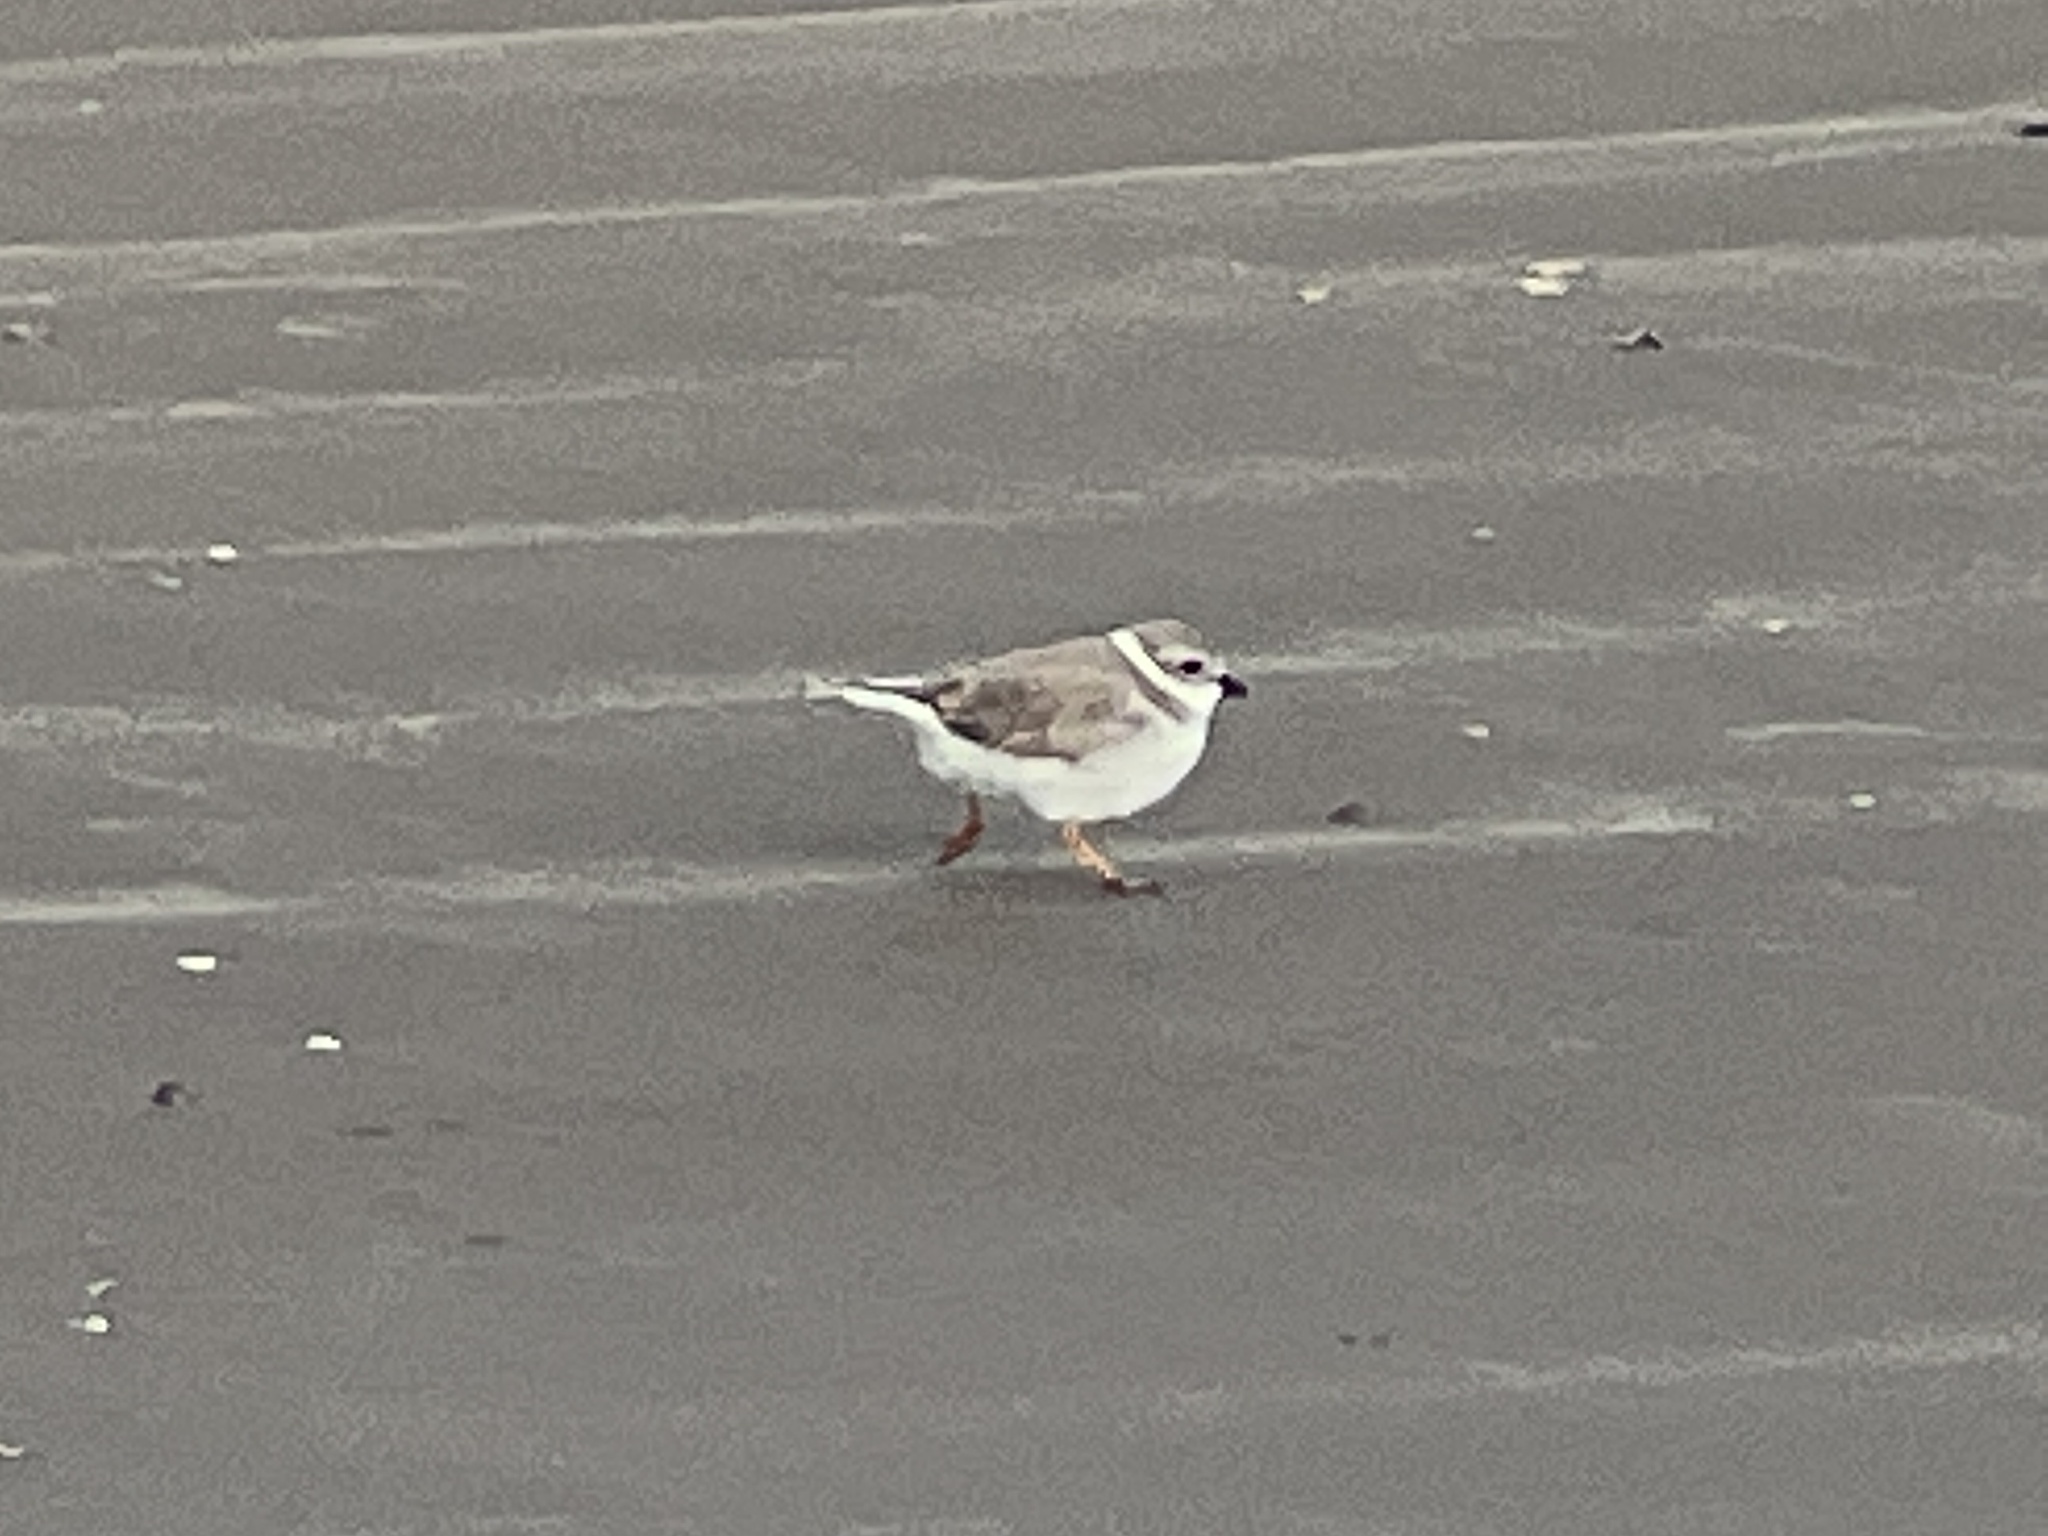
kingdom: Animalia
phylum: Chordata
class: Aves
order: Charadriiformes
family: Charadriidae
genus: Charadrius
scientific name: Charadrius melodus
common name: Piping plover
